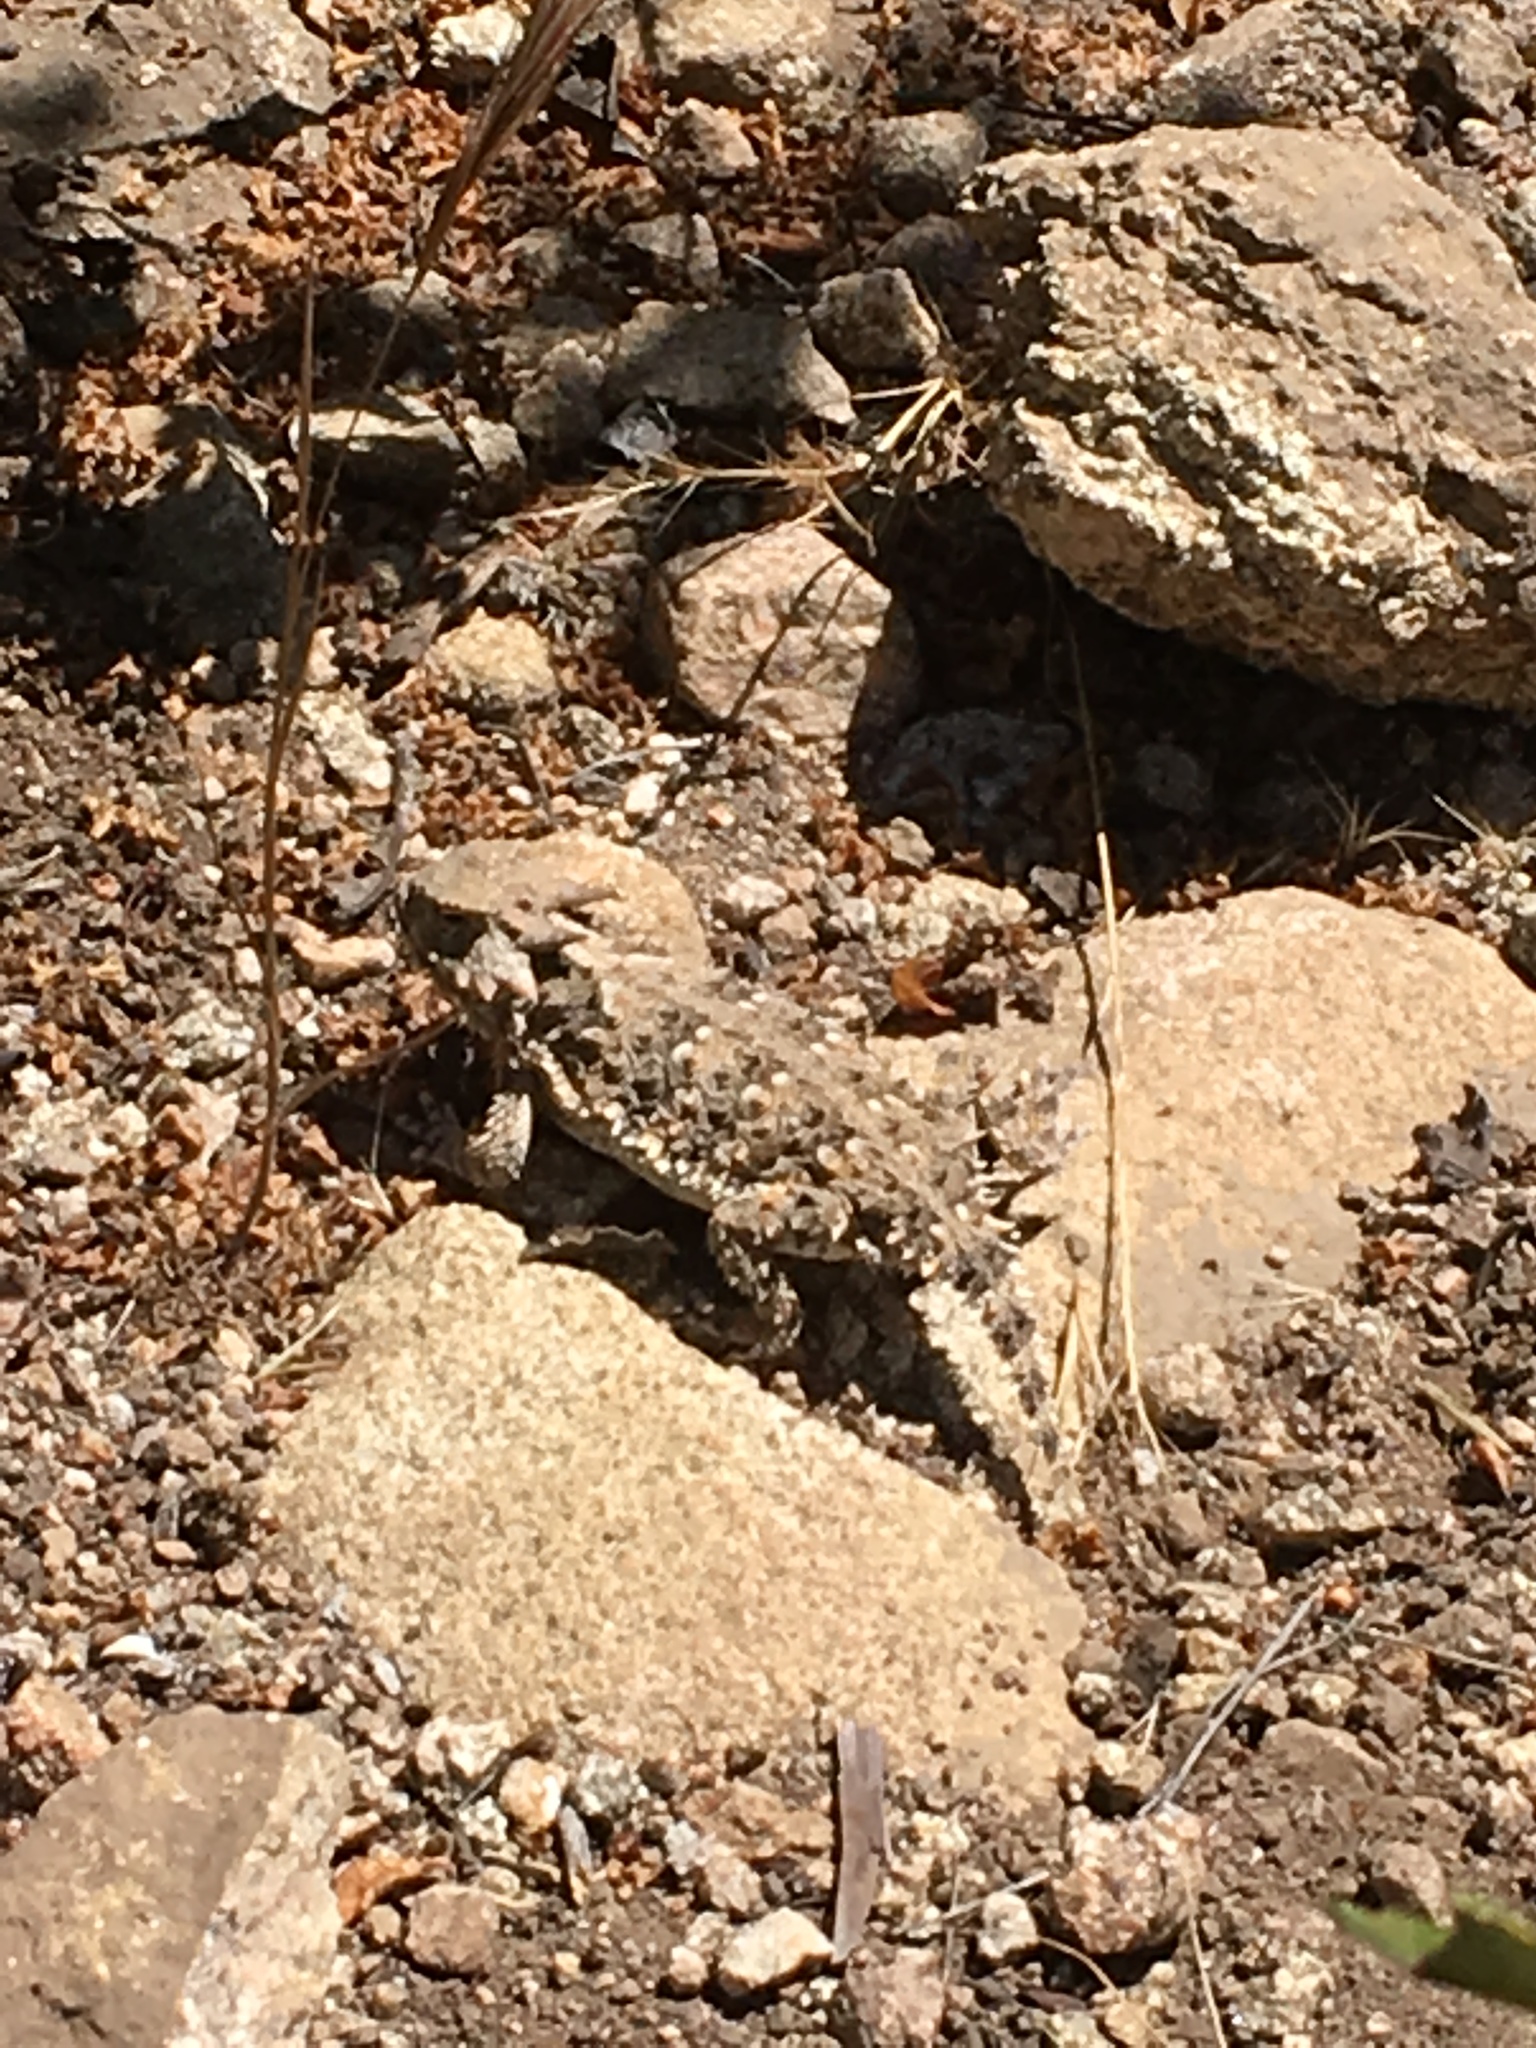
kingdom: Animalia
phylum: Chordata
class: Squamata
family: Phrynosomatidae
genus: Phrynosoma
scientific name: Phrynosoma blainvillii
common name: San diego horned lizard
